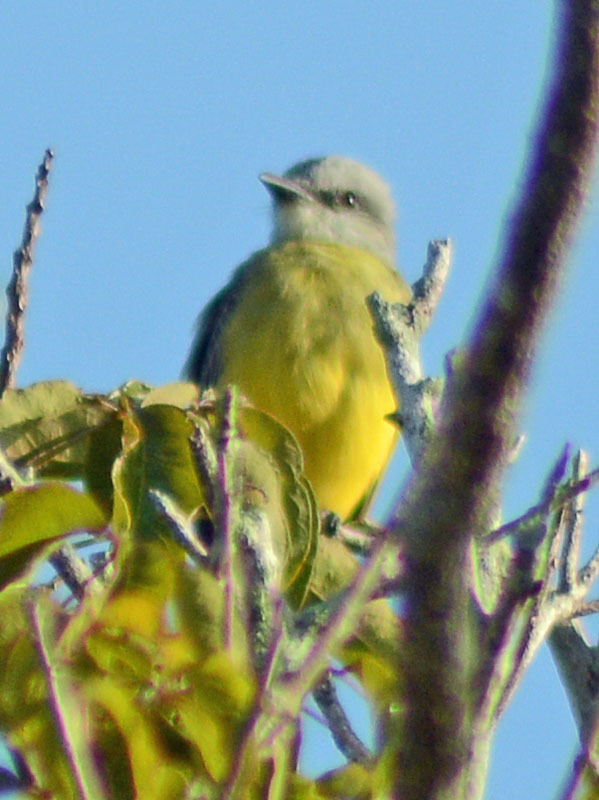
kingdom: Animalia
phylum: Chordata
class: Aves
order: Passeriformes
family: Tyrannidae
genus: Tyrannus
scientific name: Tyrannus melancholicus
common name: Tropical kingbird
